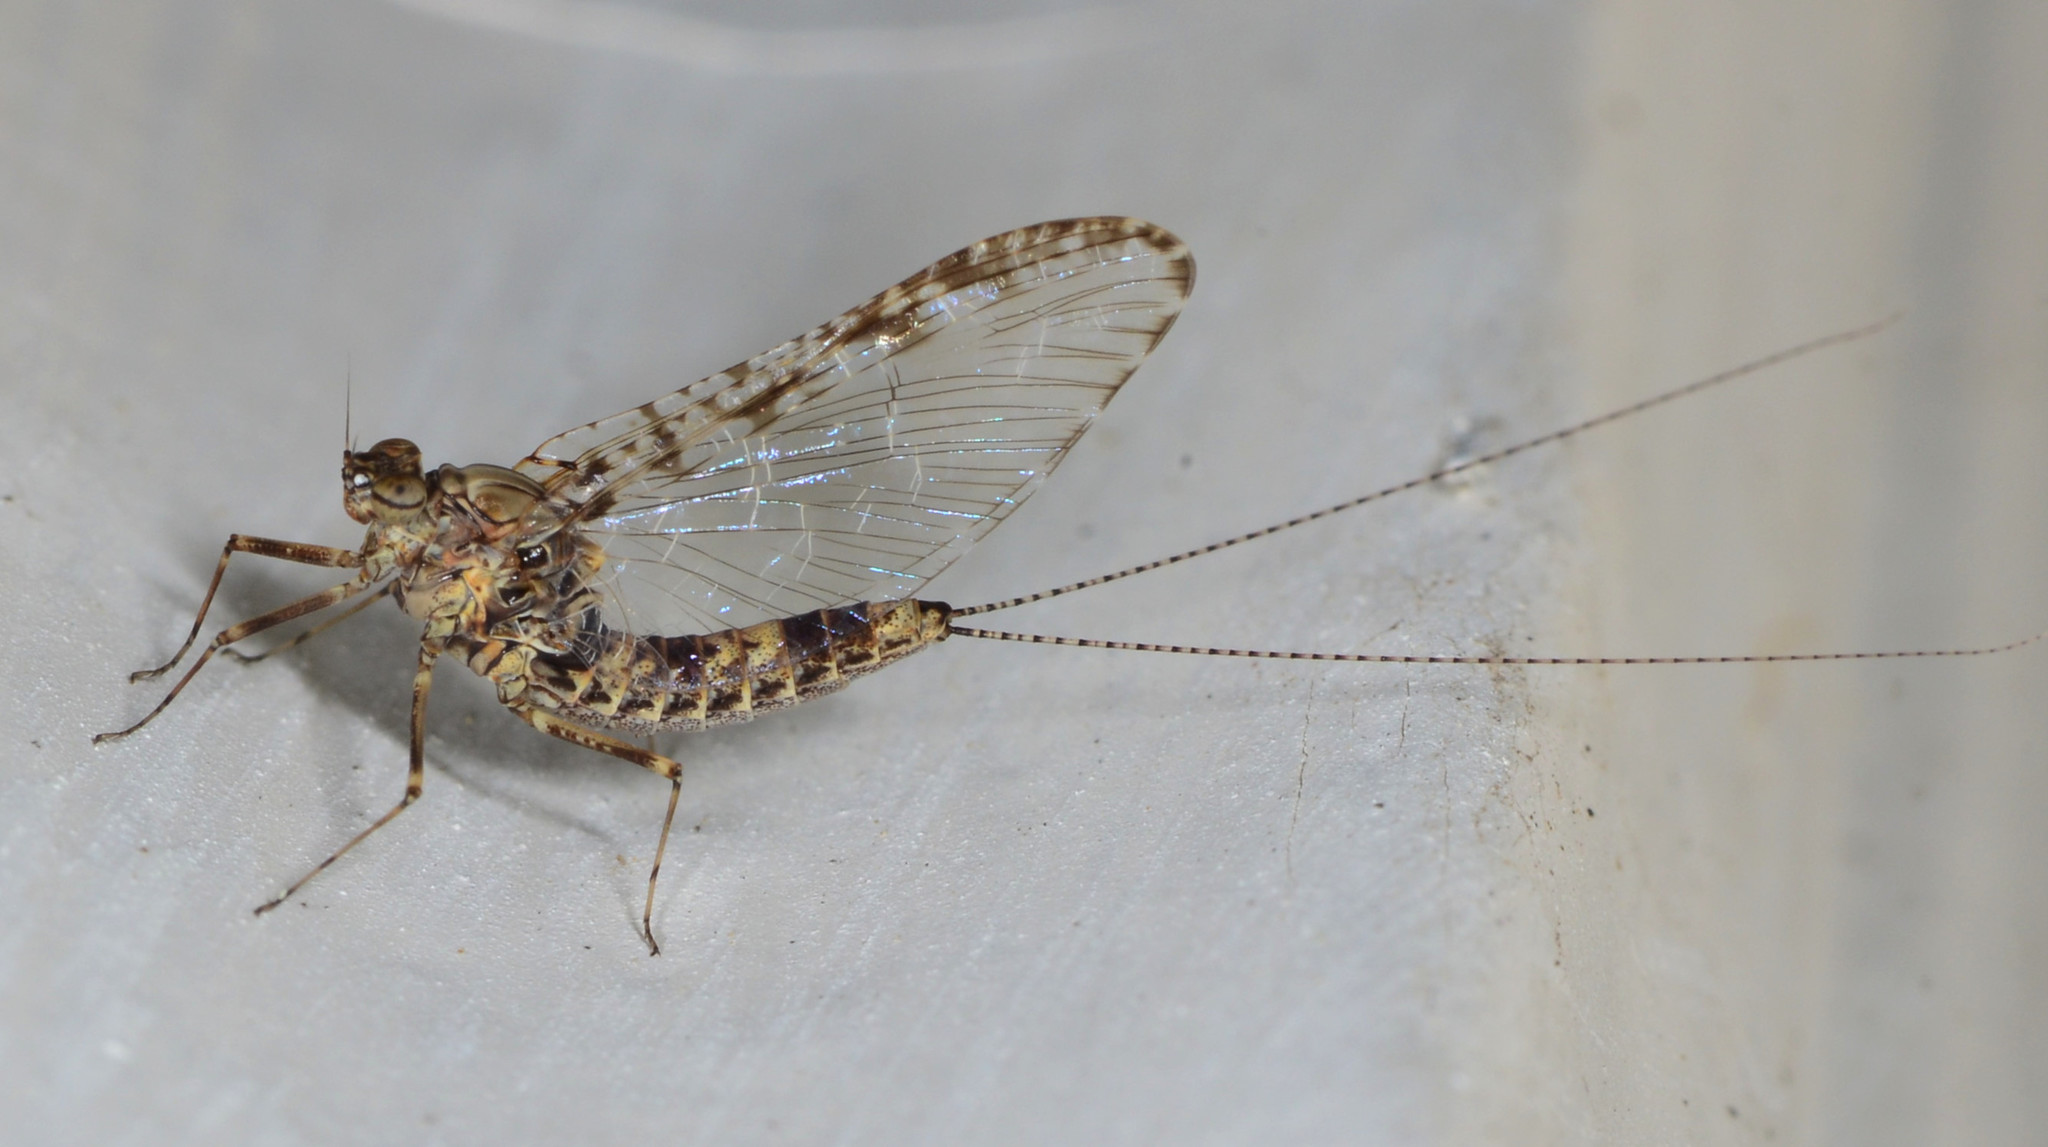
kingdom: Animalia
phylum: Arthropoda
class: Insecta
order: Ephemeroptera
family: Baetidae
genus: Callibaetis
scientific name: Callibaetis pictus
